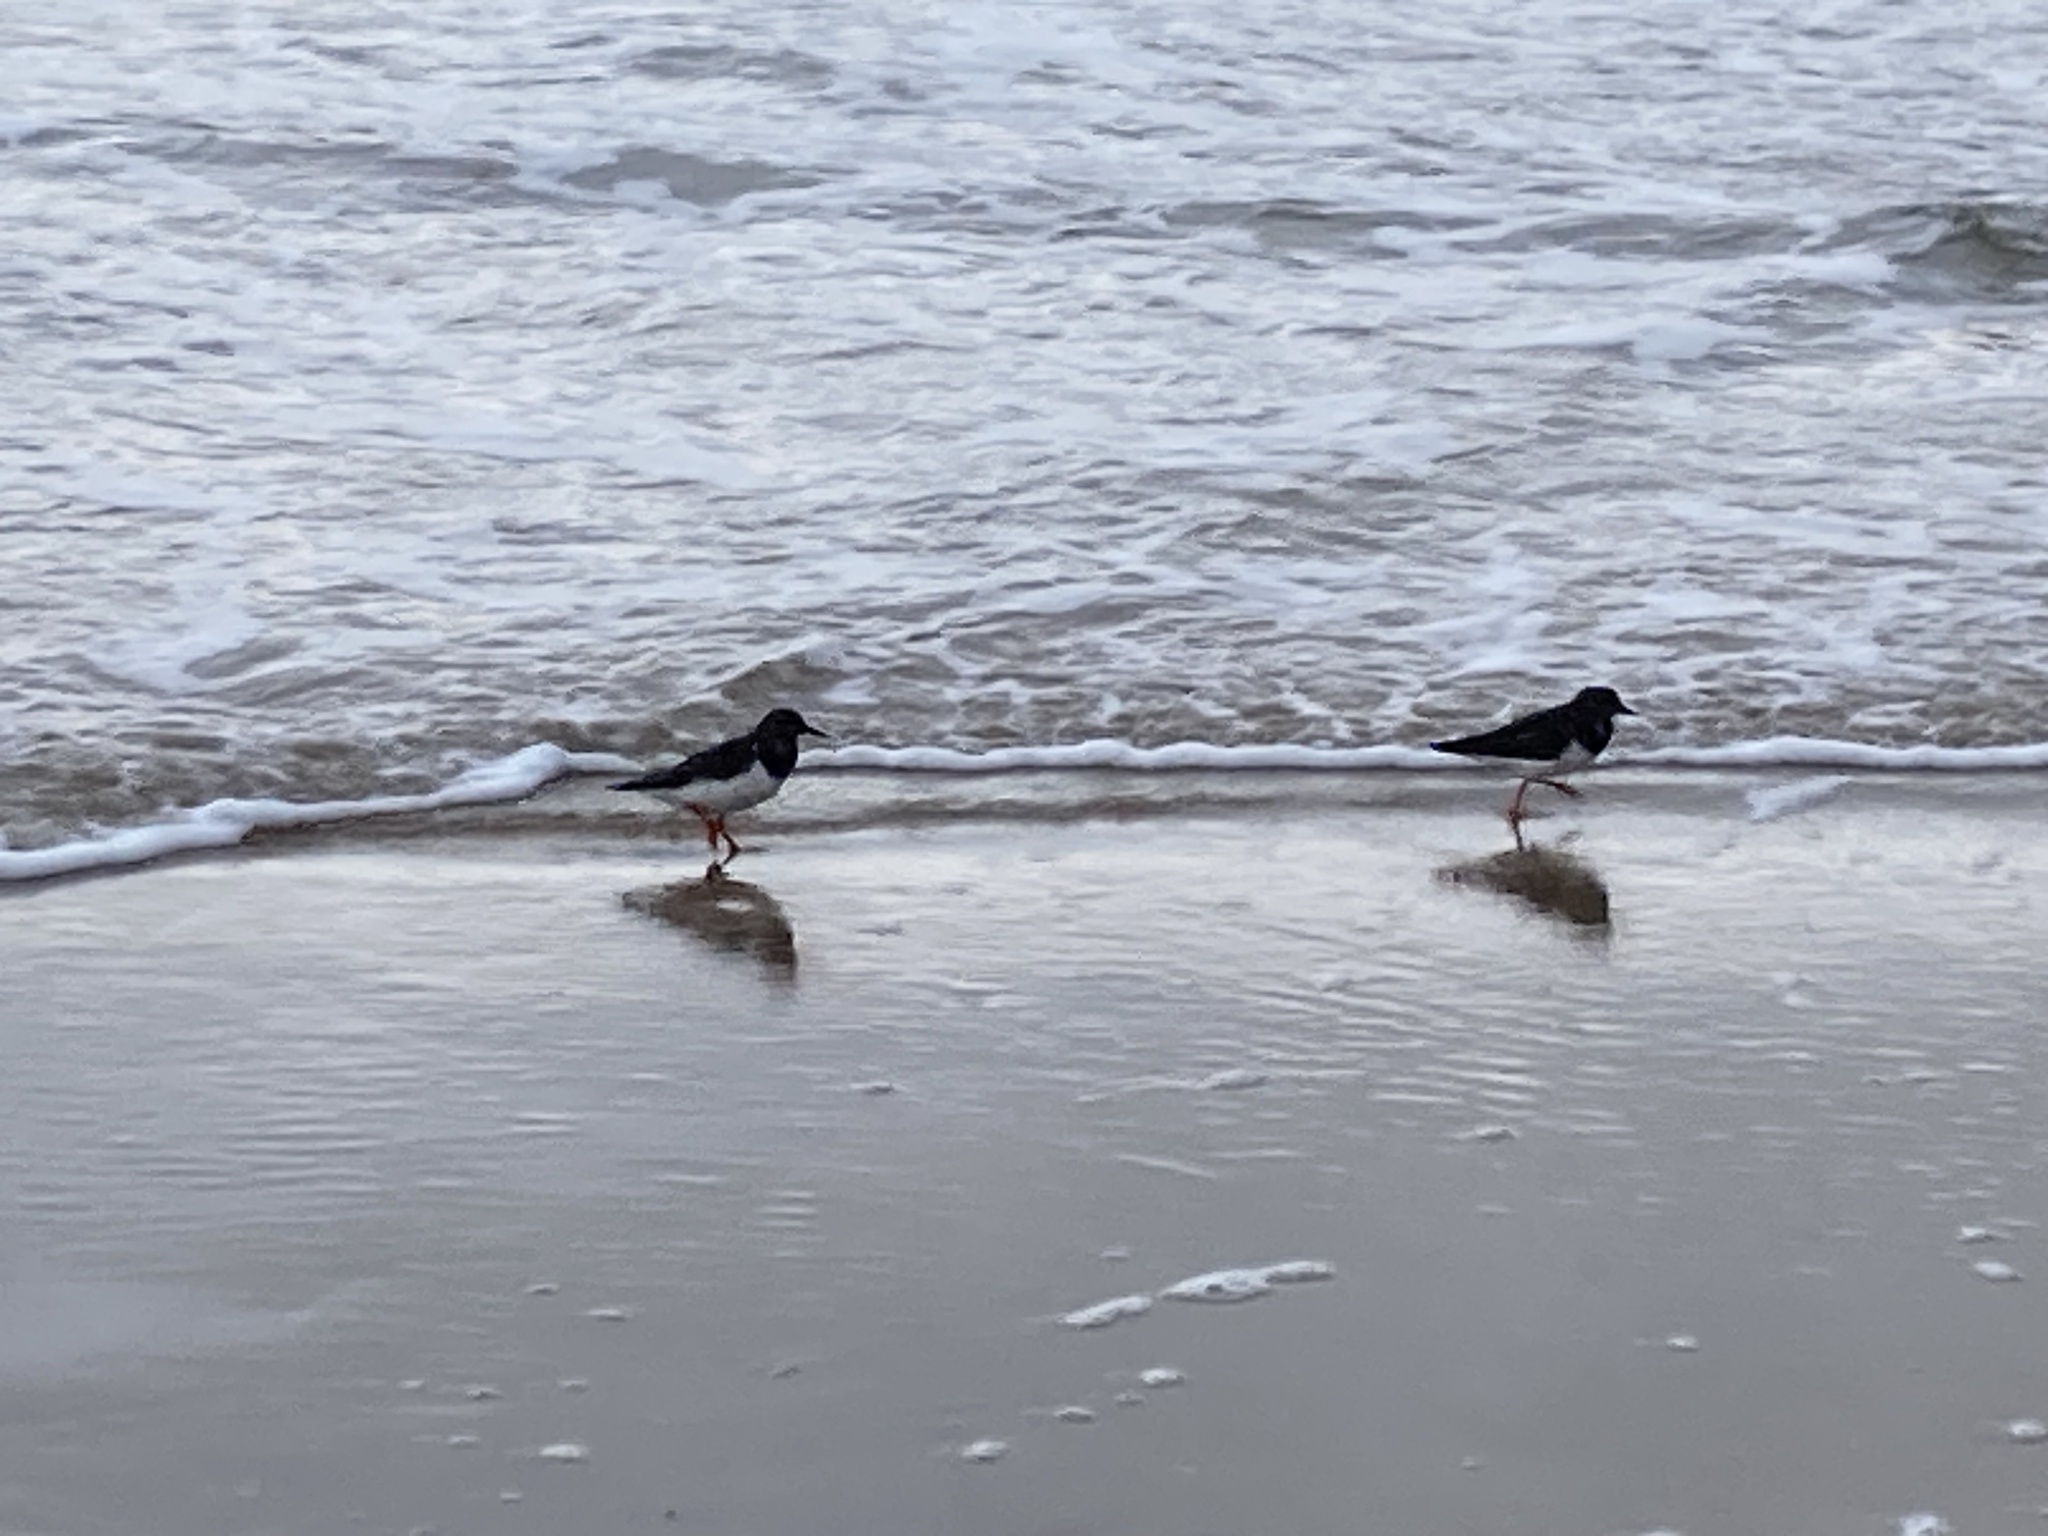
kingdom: Animalia
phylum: Chordata
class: Aves
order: Charadriiformes
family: Haematopodidae
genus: Haematopus
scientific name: Haematopus ostralegus
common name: Eurasian oystercatcher
